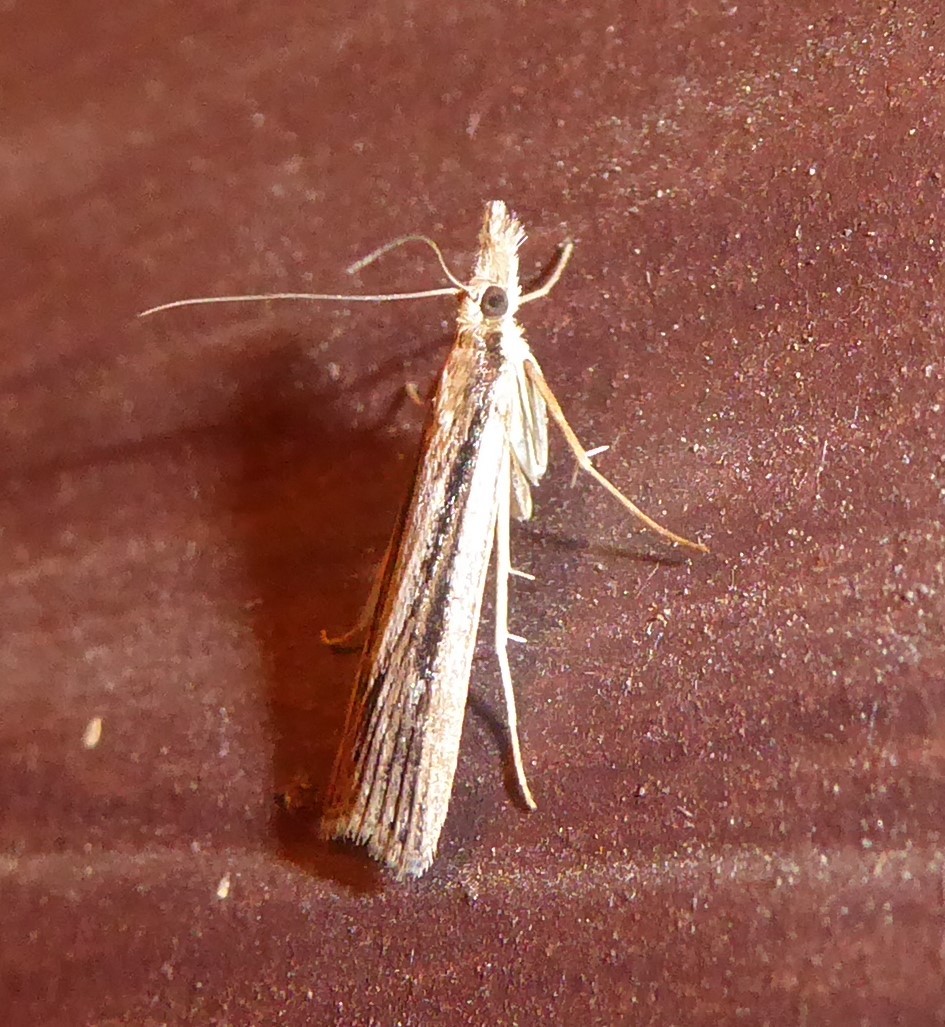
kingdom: Animalia
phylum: Arthropoda
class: Insecta
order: Lepidoptera
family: Crambidae
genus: Eudonia
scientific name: Eudonia sabulosella
